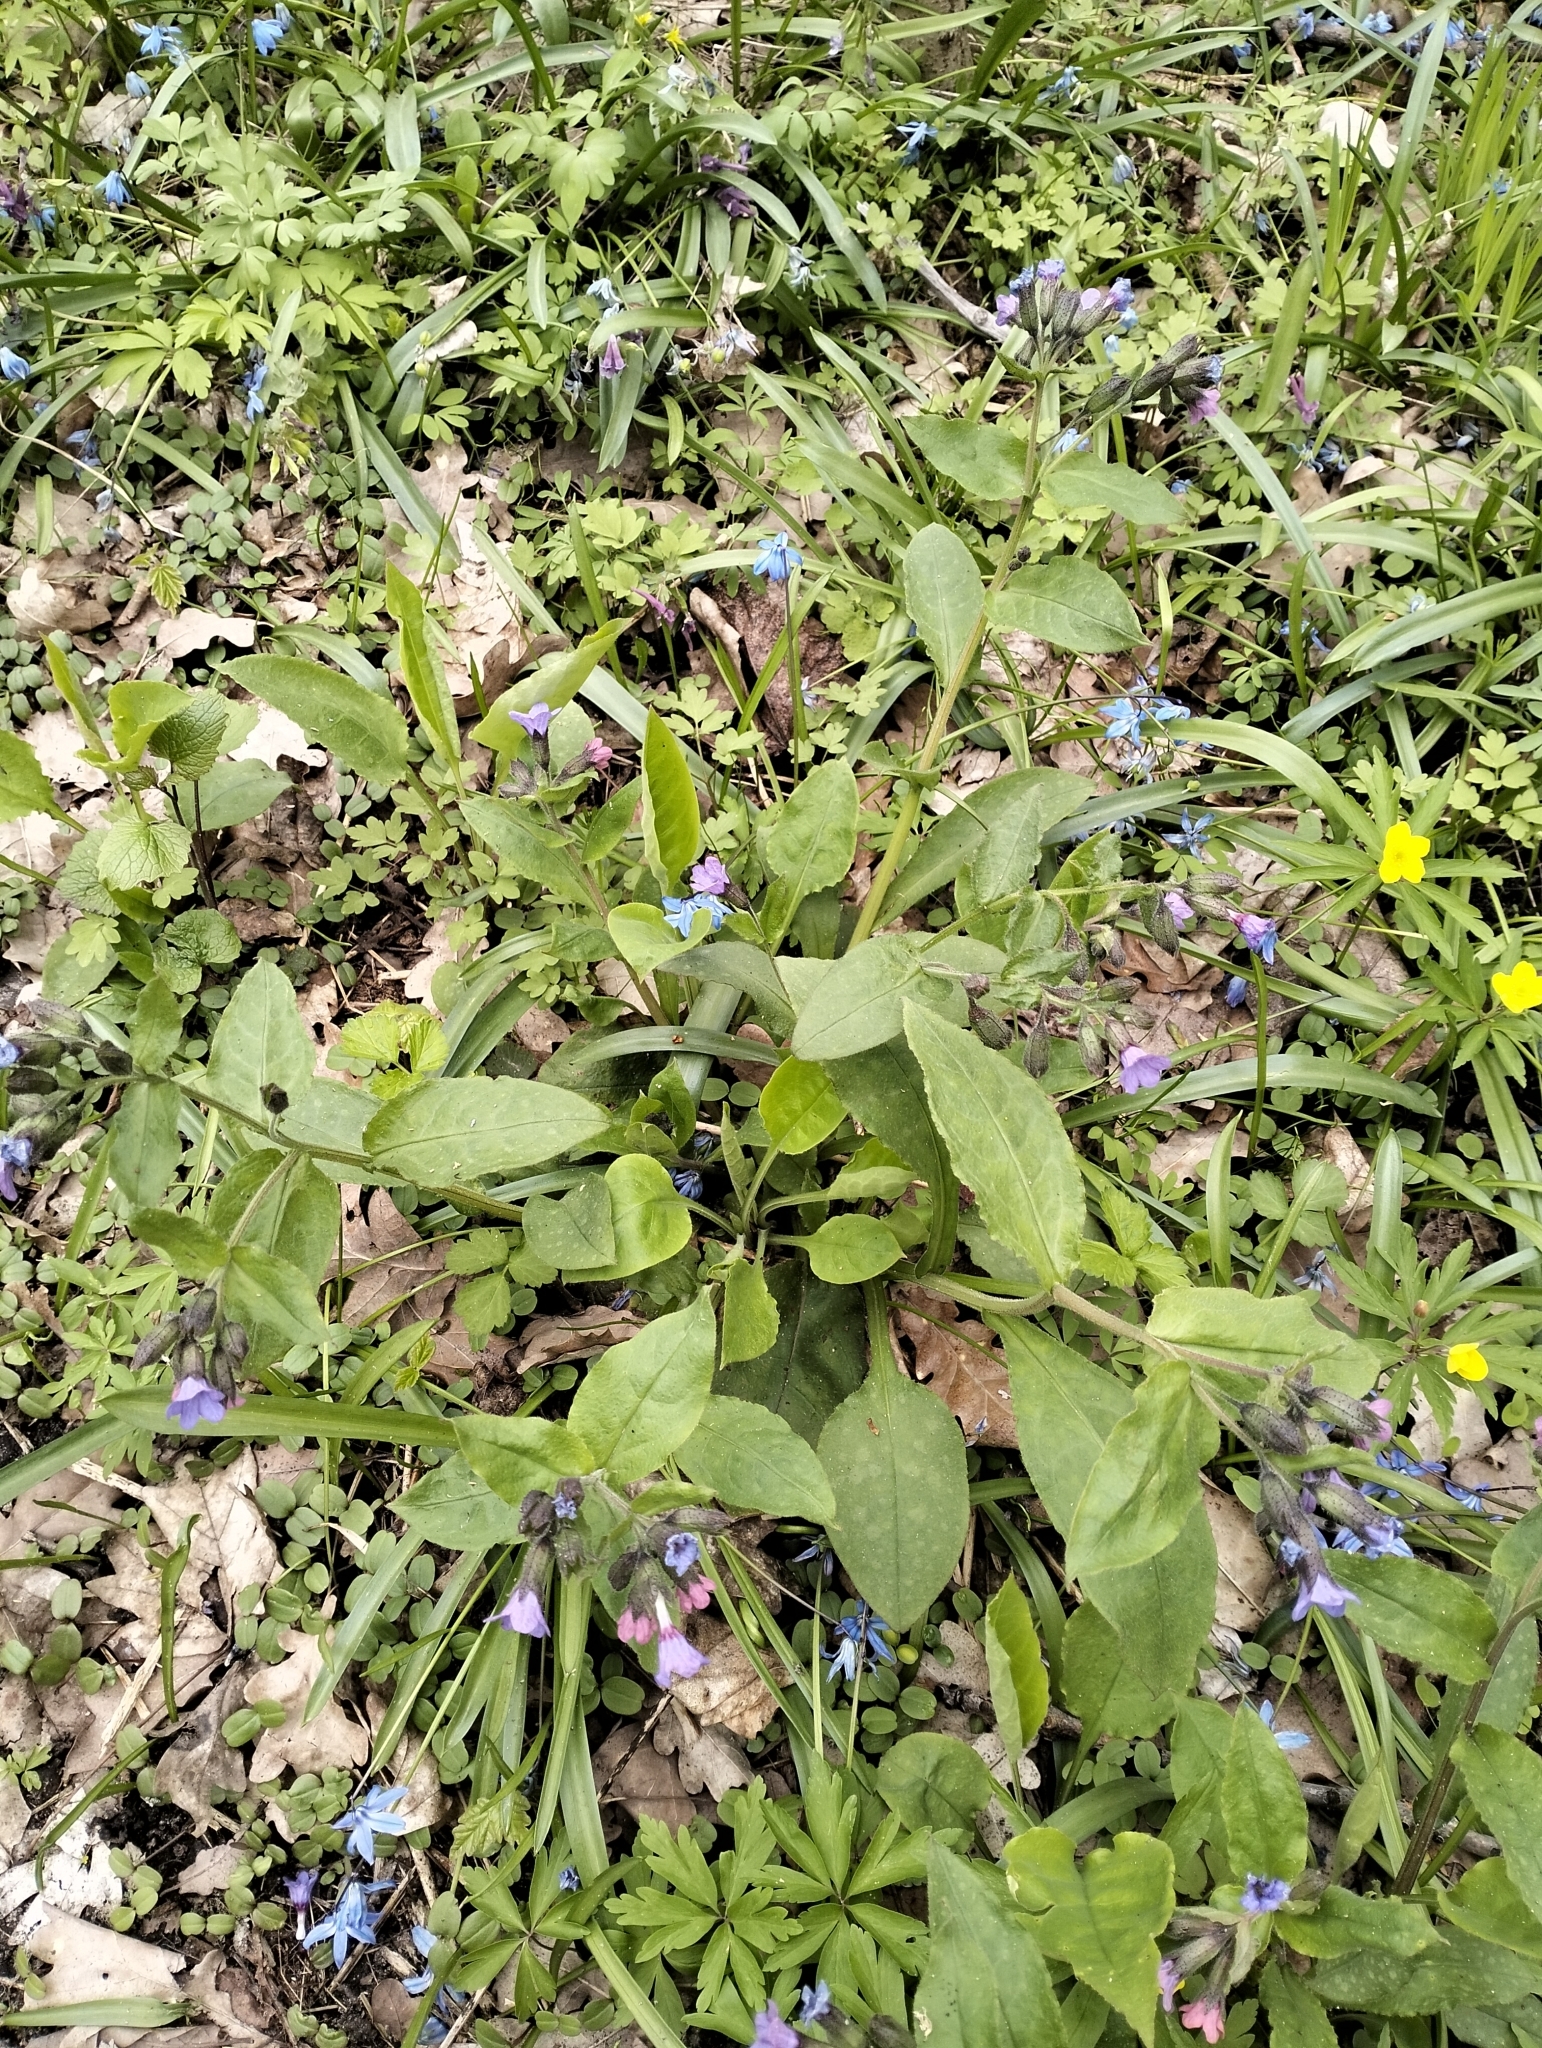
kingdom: Plantae
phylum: Tracheophyta
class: Magnoliopsida
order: Boraginales
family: Boraginaceae
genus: Pulmonaria
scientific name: Pulmonaria obscura
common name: Suffolk lungwort
